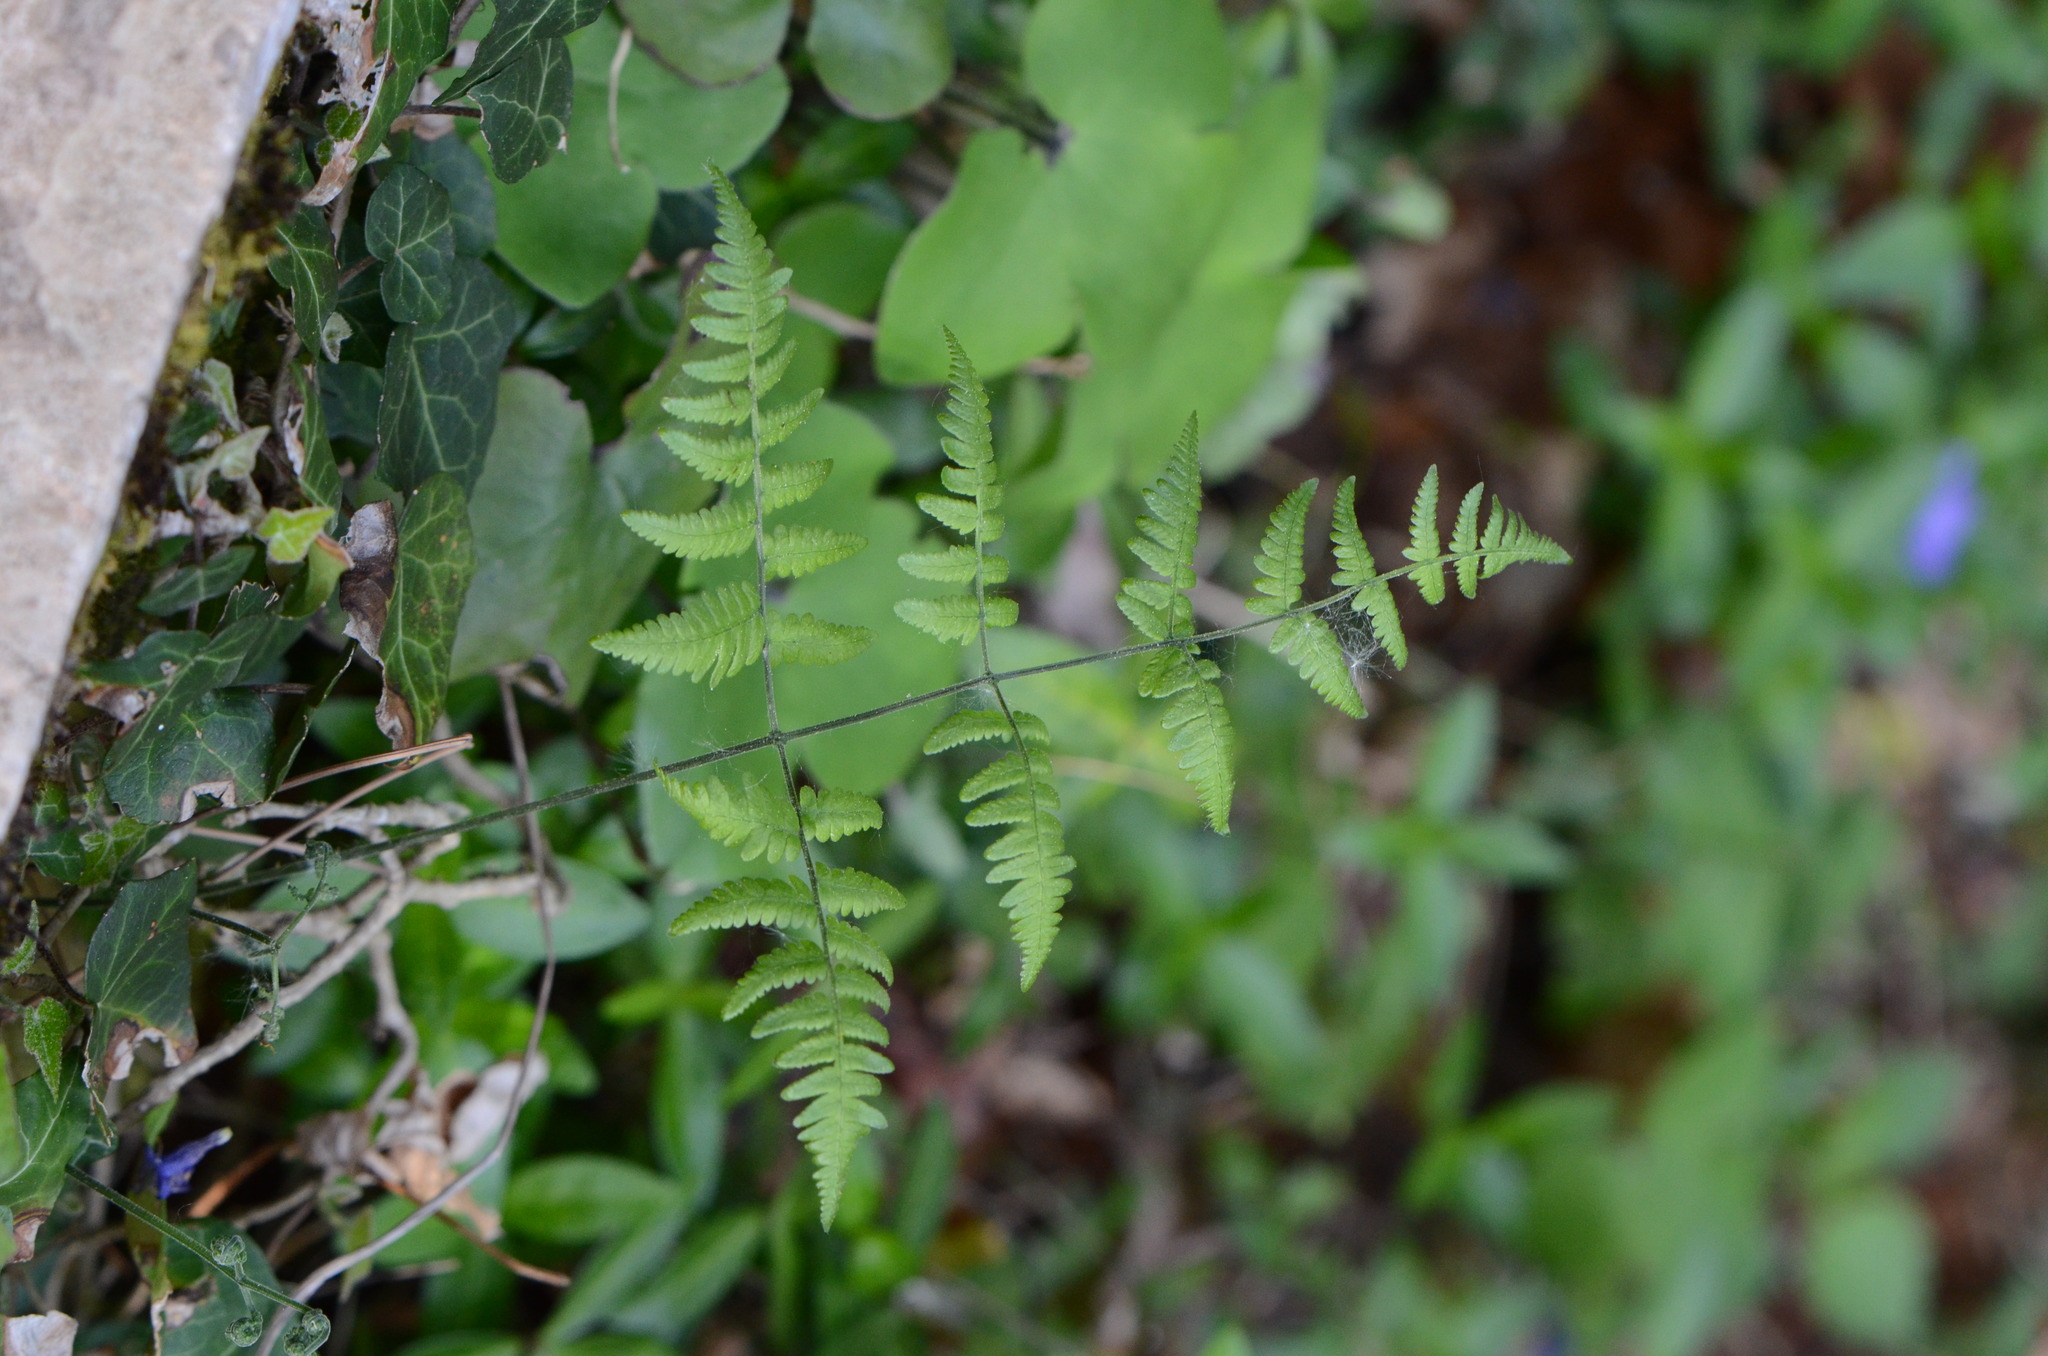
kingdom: Plantae
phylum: Tracheophyta
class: Polypodiopsida
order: Polypodiales
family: Cystopteridaceae
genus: Gymnocarpium
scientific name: Gymnocarpium robertianum
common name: Limestone fern
